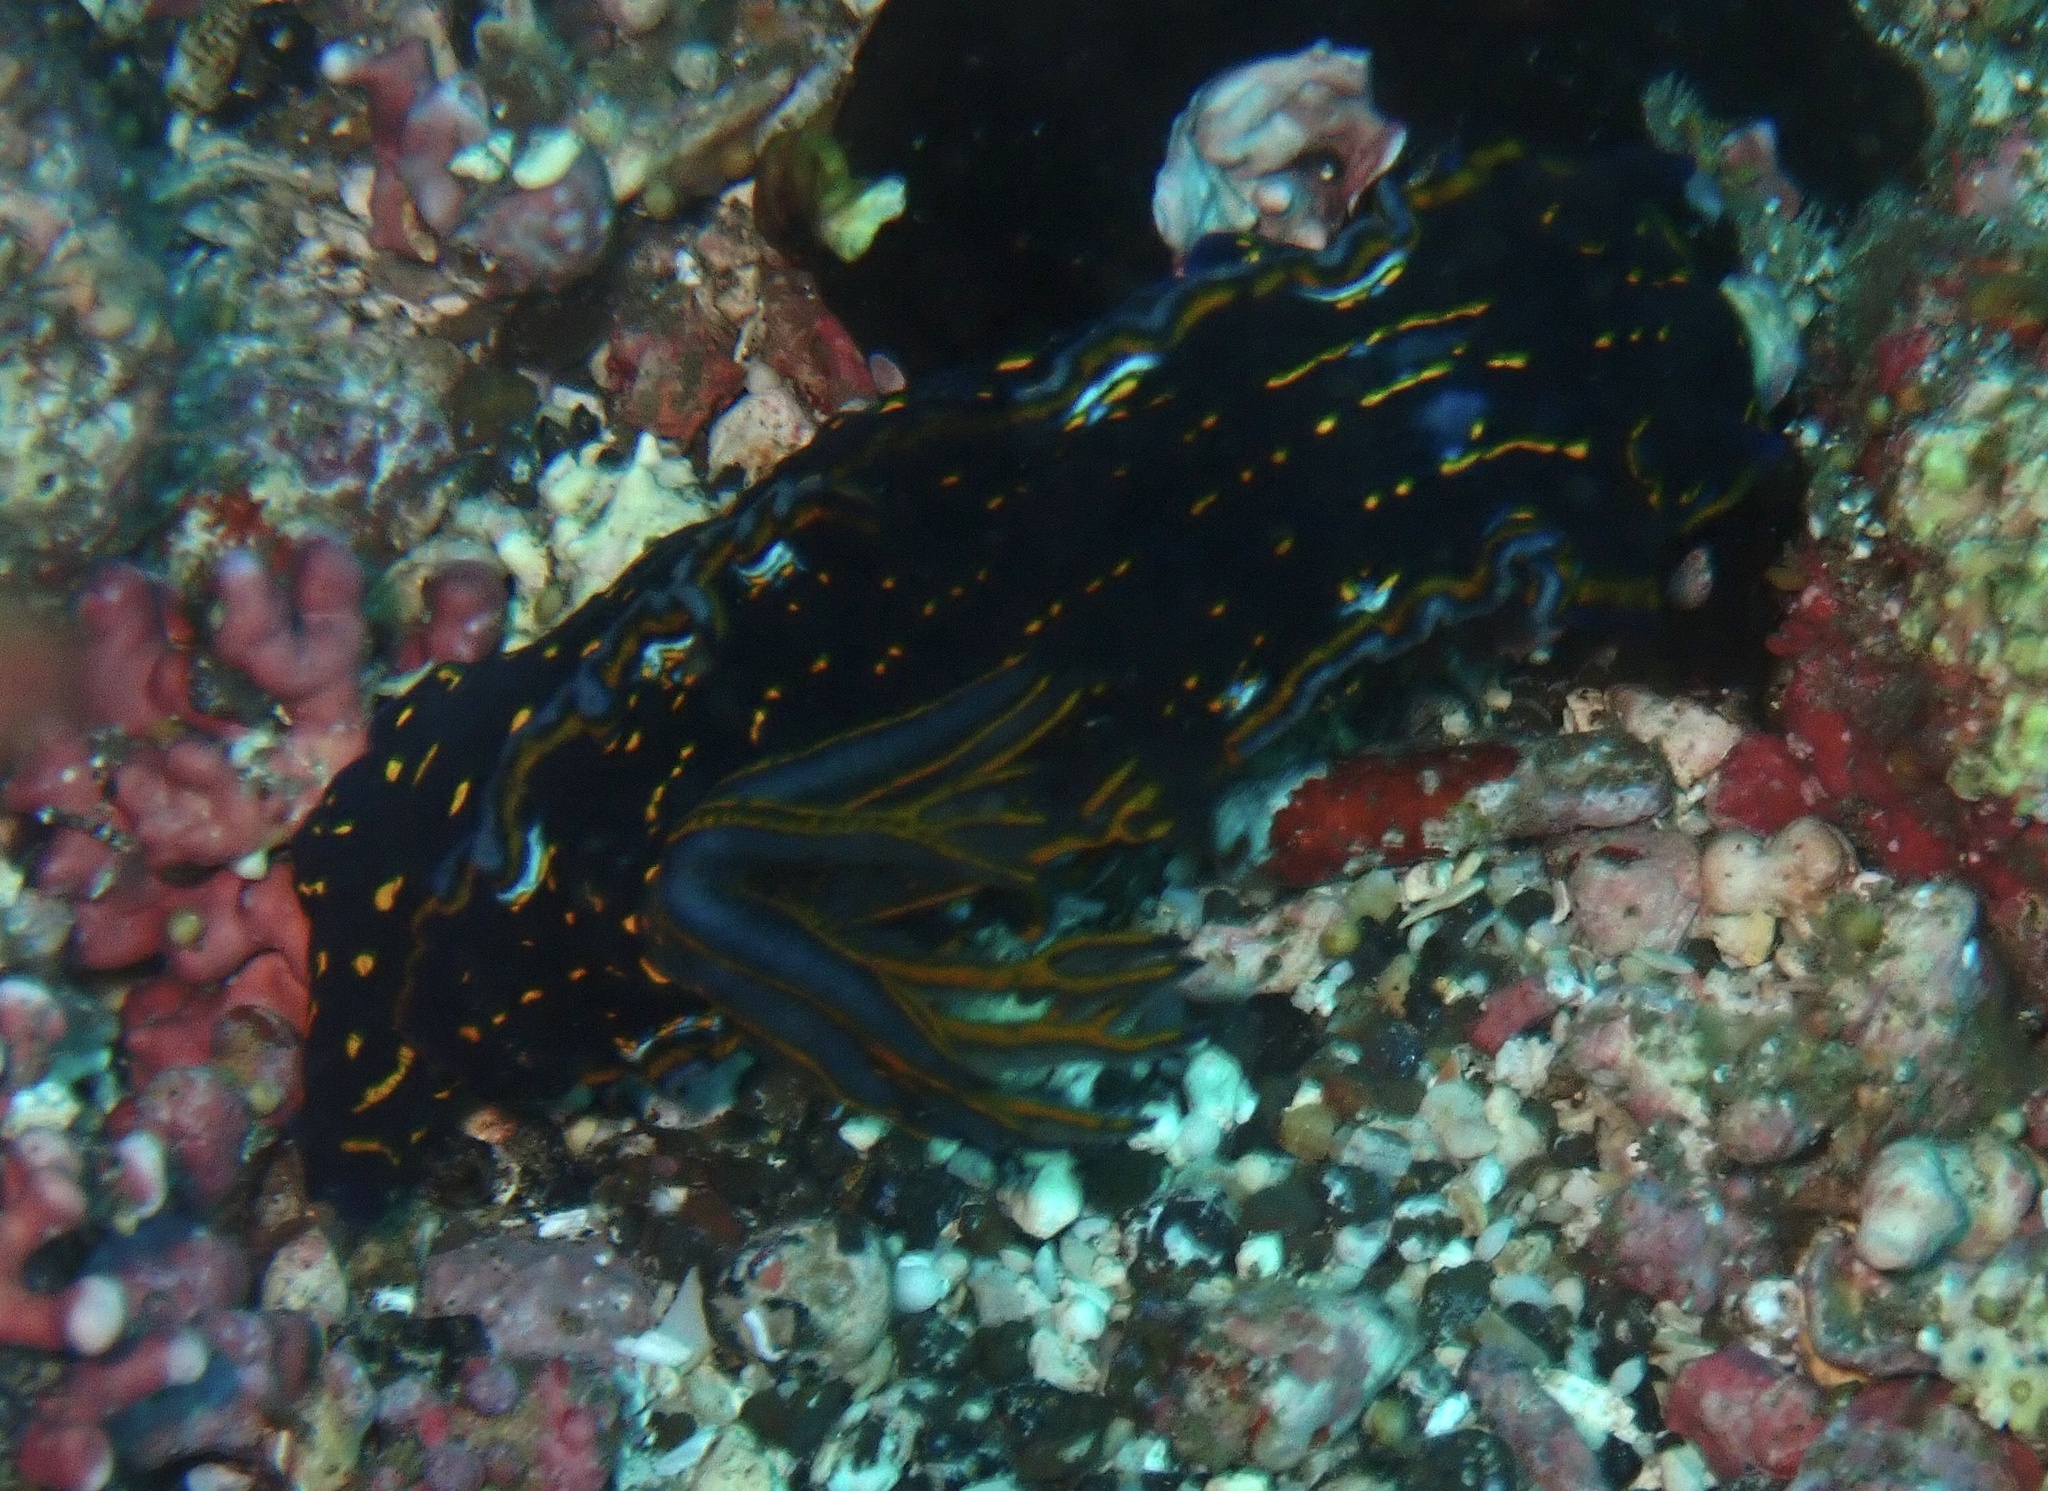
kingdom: Animalia
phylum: Mollusca
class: Gastropoda
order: Nudibranchia
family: Chromodorididae
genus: Felimare
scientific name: Felimare tema
